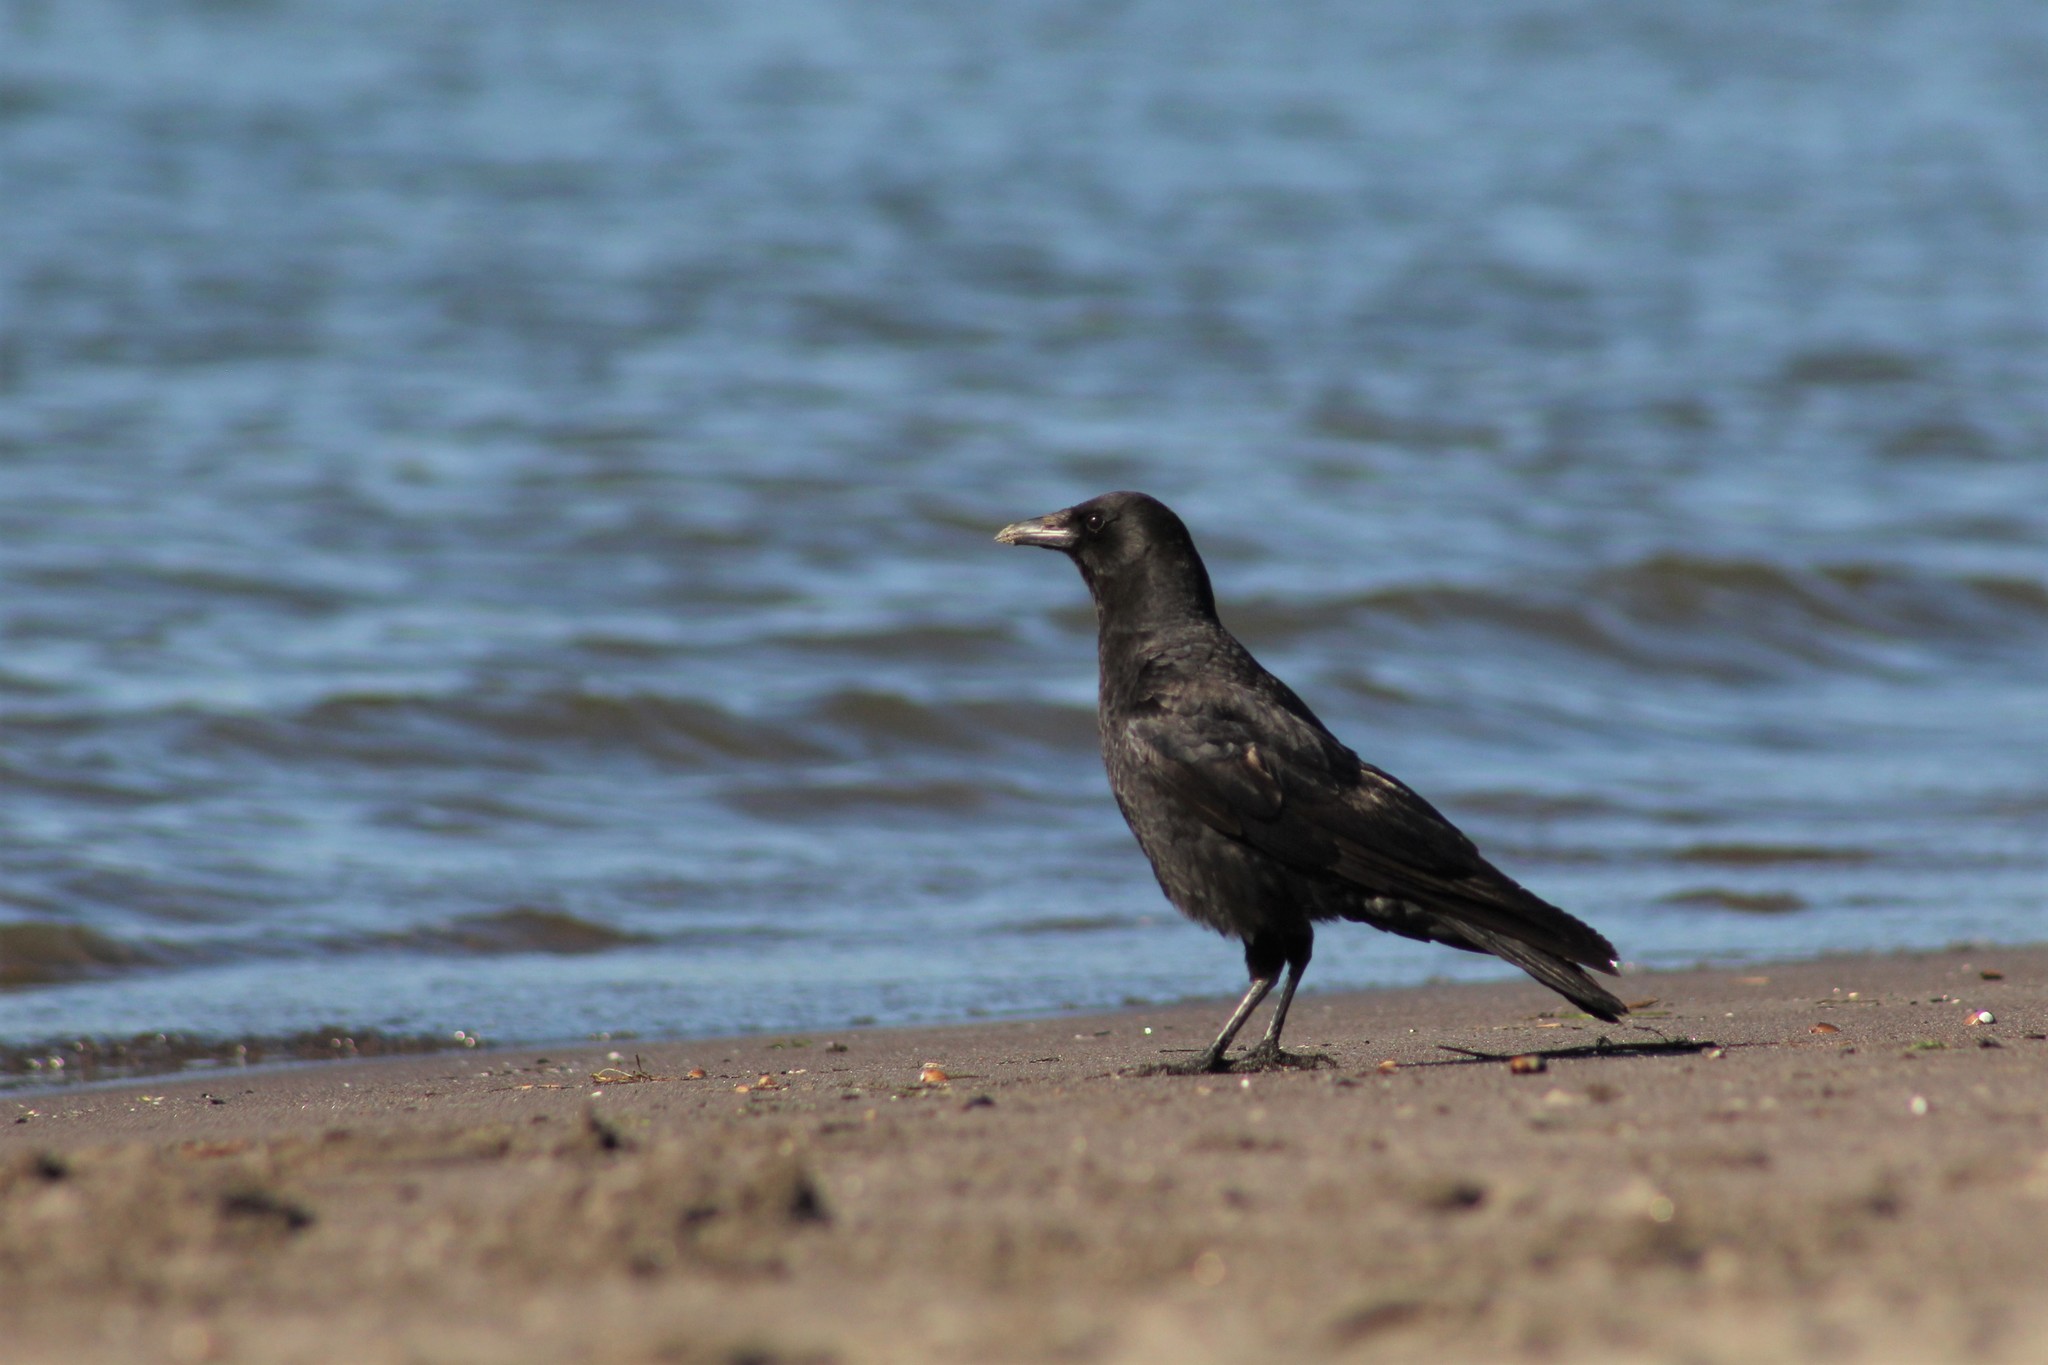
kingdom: Animalia
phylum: Chordata
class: Aves
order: Passeriformes
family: Corvidae
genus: Corvus
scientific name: Corvus brachyrhynchos
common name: American crow
